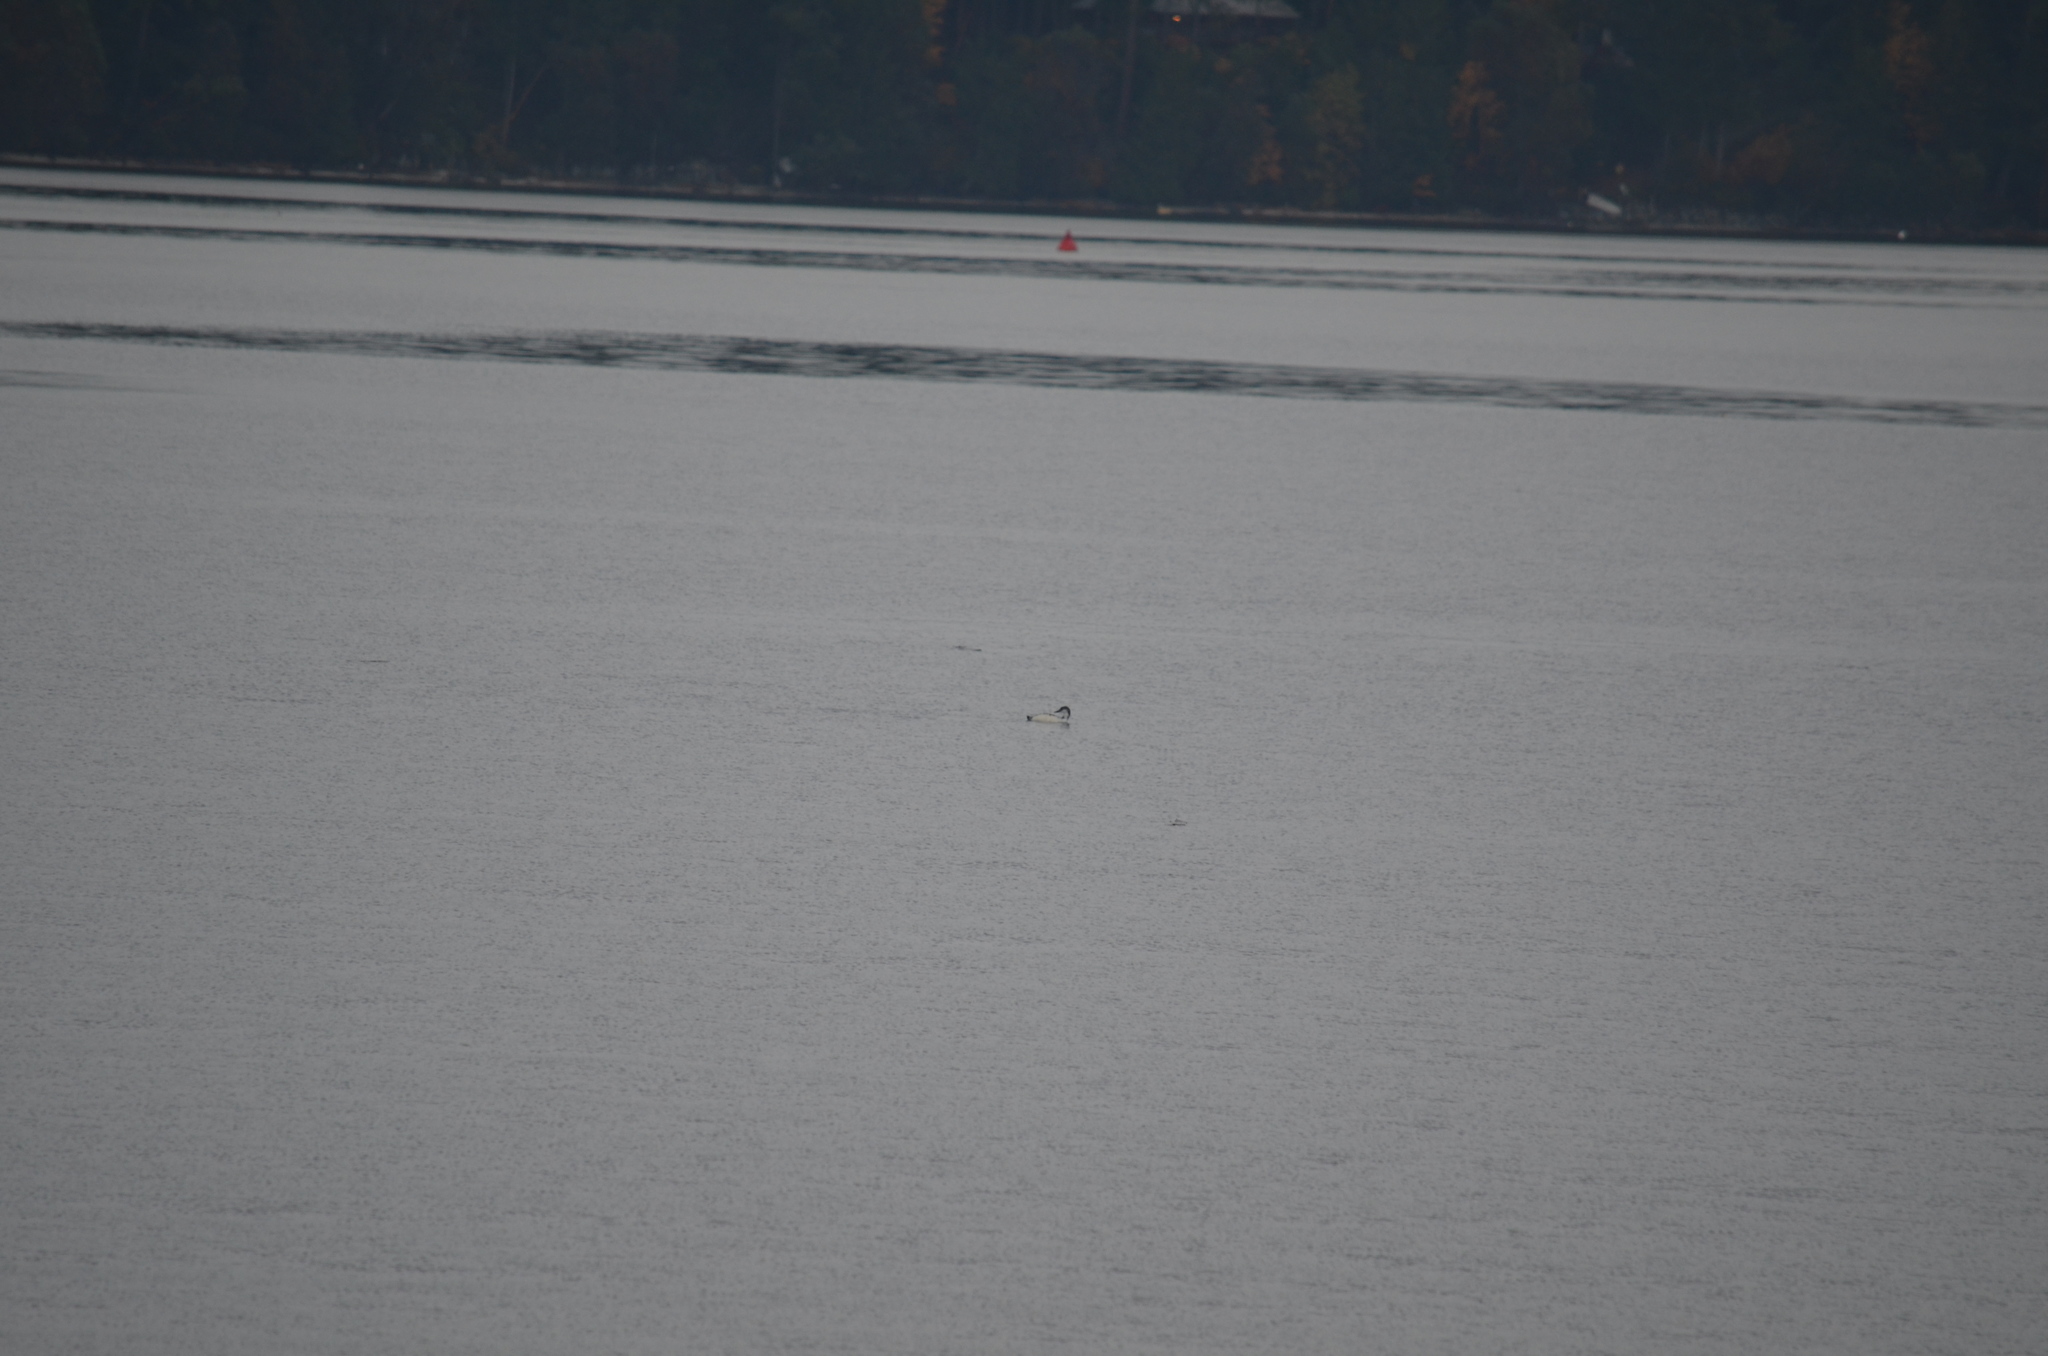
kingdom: Animalia
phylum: Chordata
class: Aves
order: Gaviiformes
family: Gaviidae
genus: Gavia
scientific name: Gavia immer
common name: Common loon
